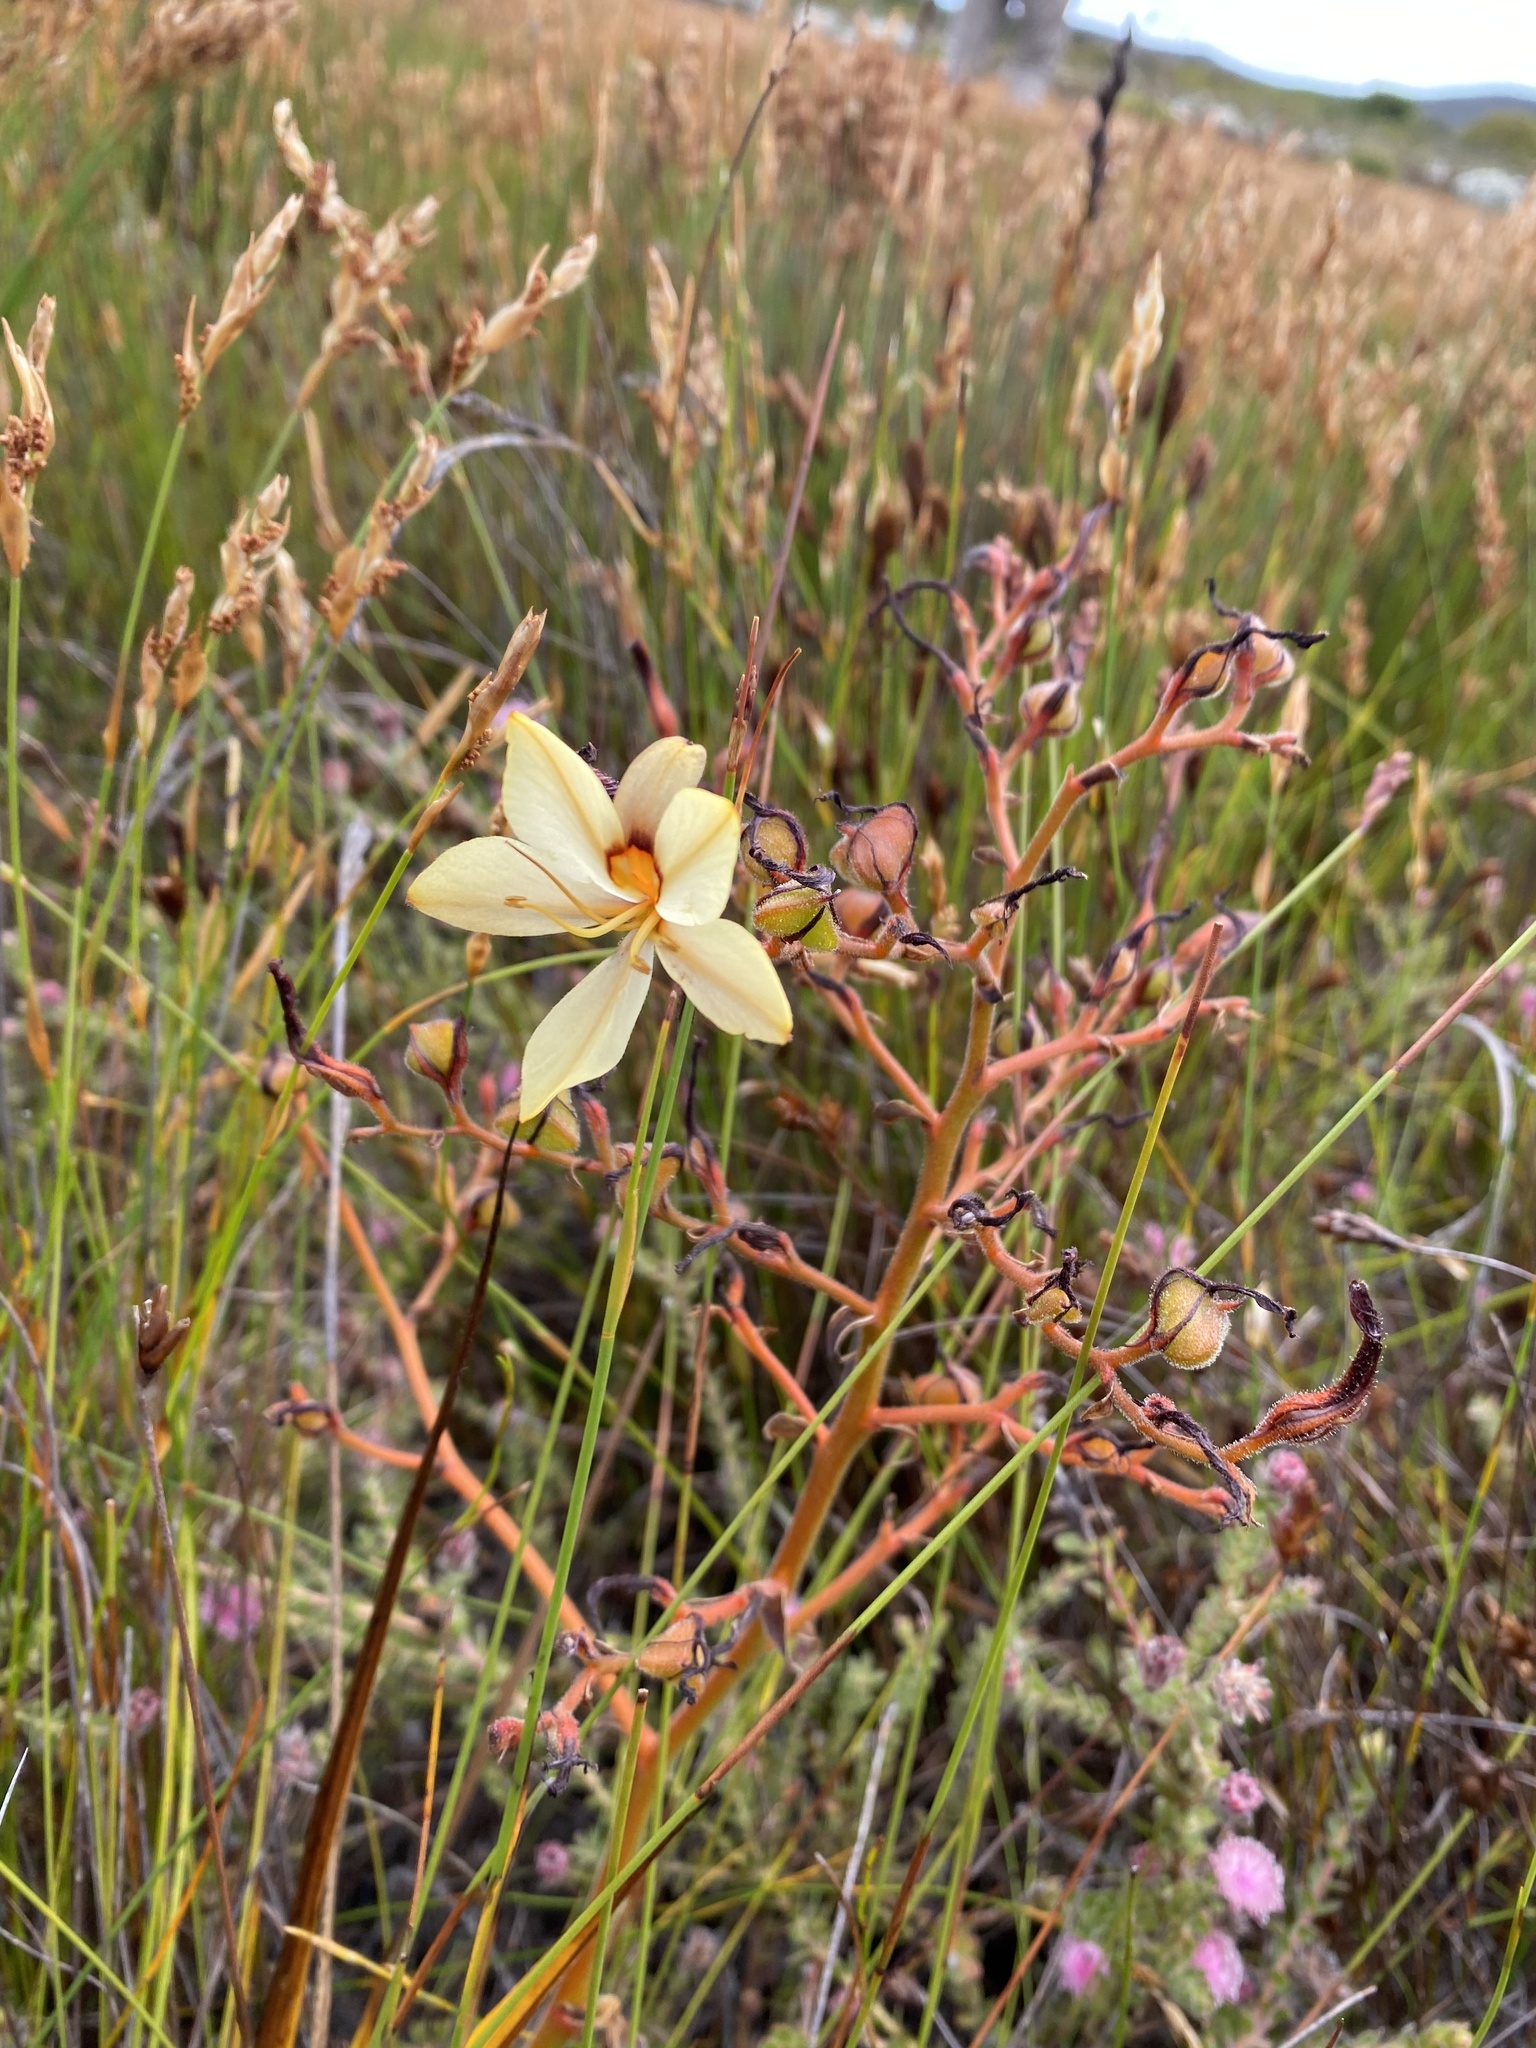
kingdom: Plantae
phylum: Tracheophyta
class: Liliopsida
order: Commelinales
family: Haemodoraceae
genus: Wachendorfia
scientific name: Wachendorfia paniculata
